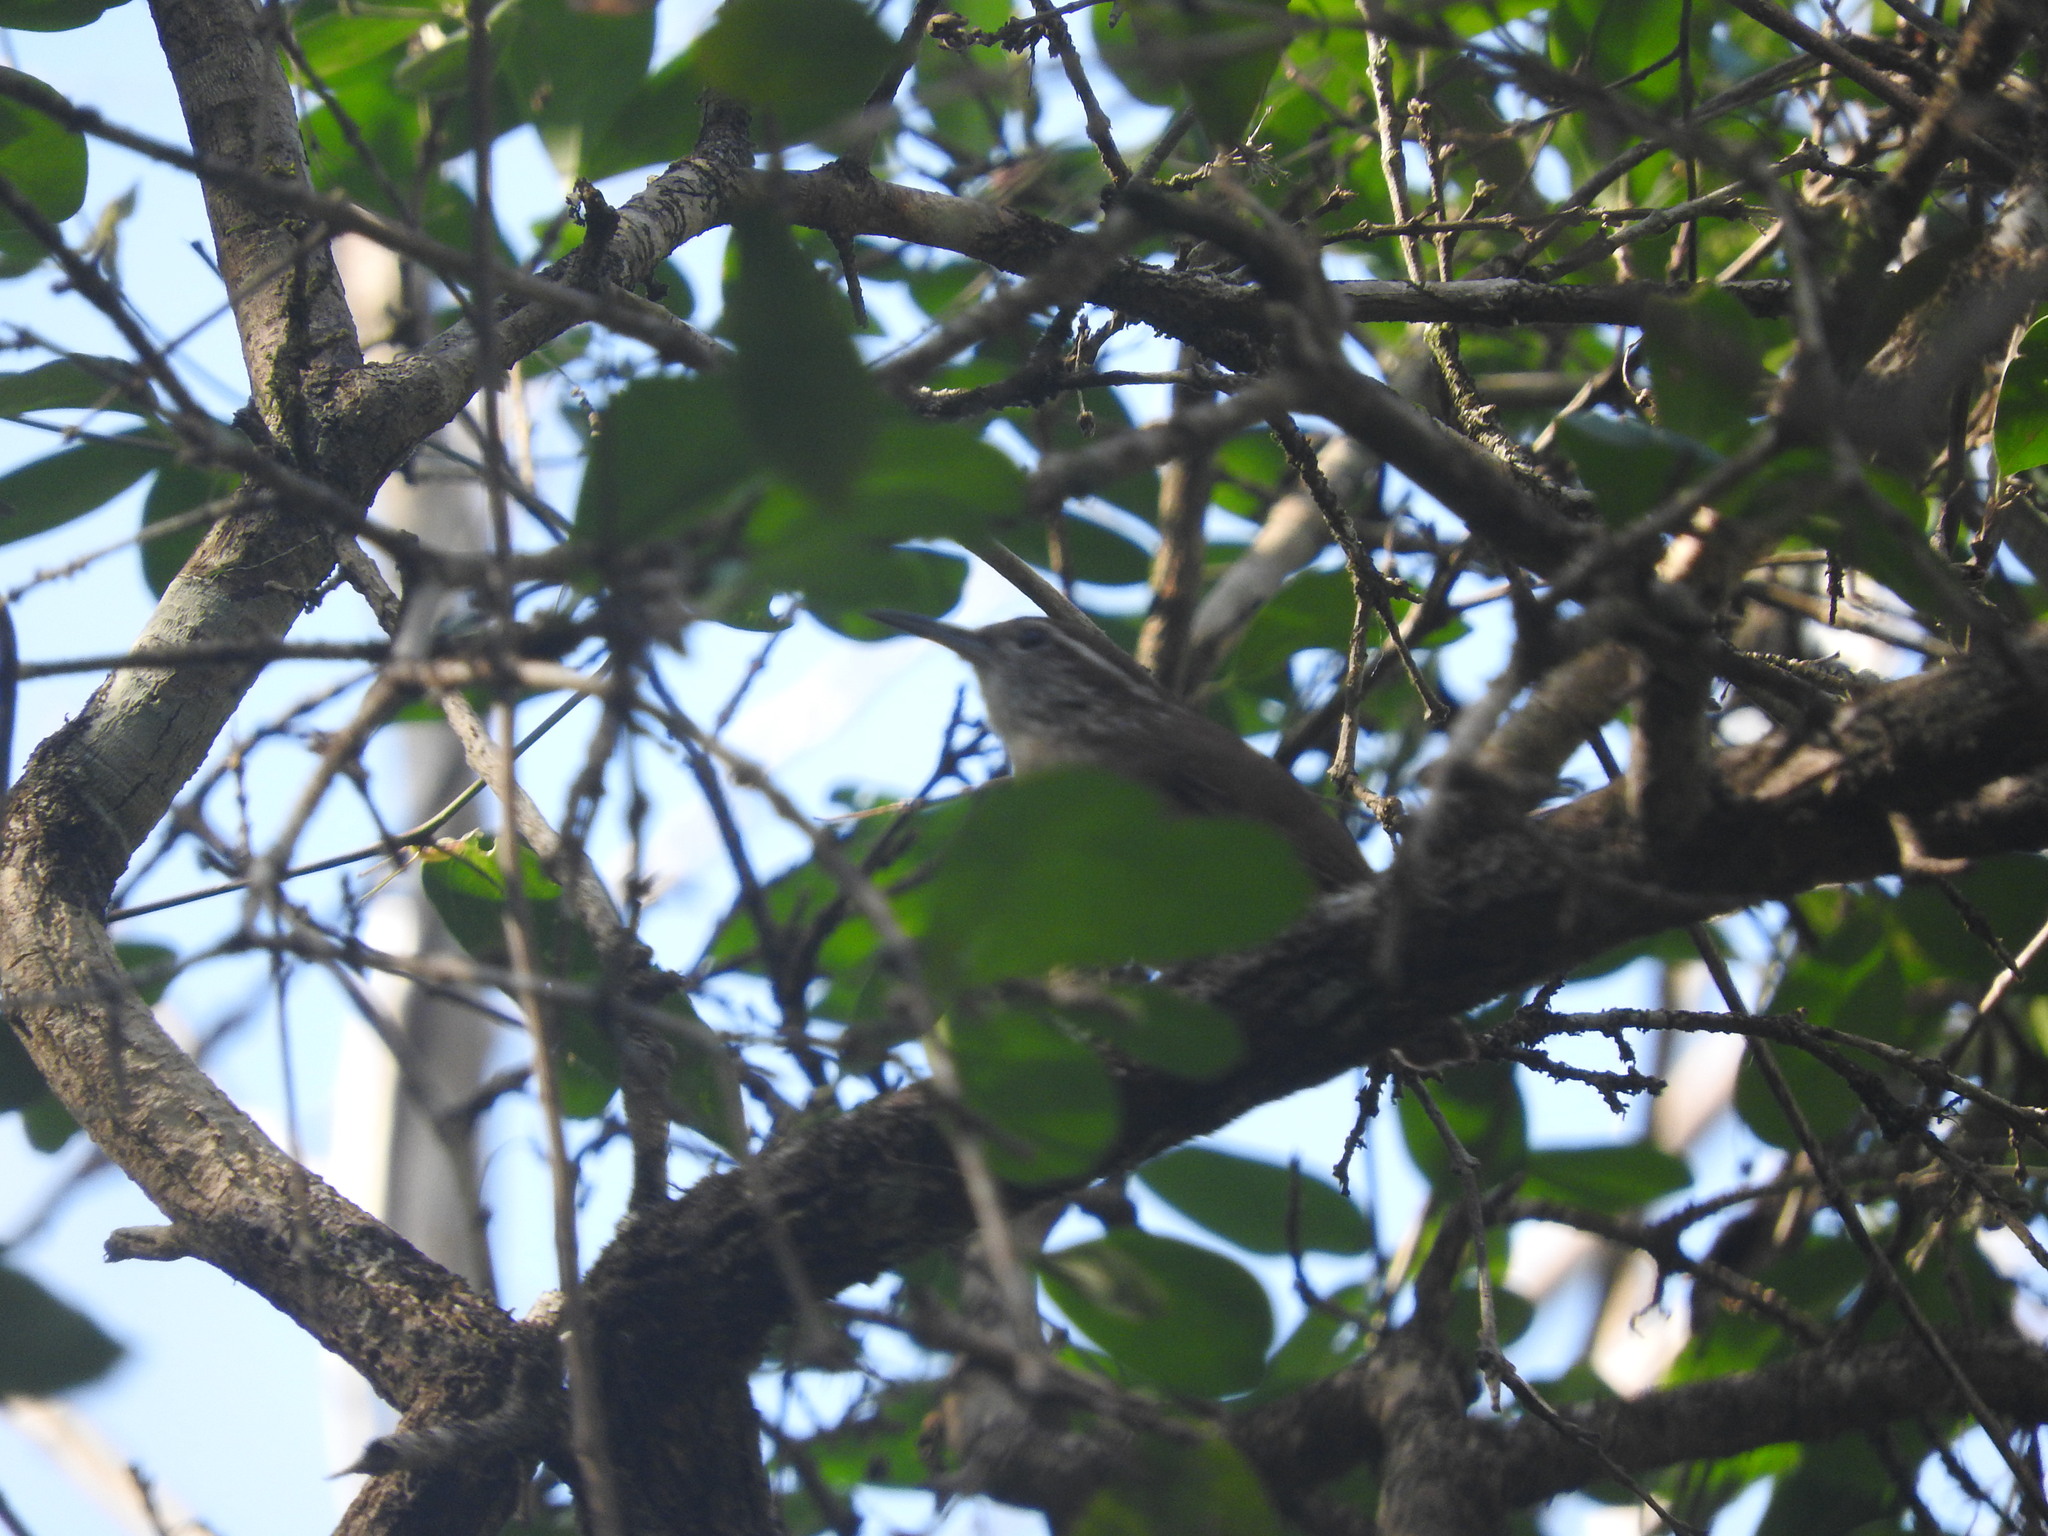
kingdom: Animalia
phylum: Chordata
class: Aves
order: Passeriformes
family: Troglodytidae
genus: Pheugopedius
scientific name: Pheugopedius maculipectus
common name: Spot-breasted wren
